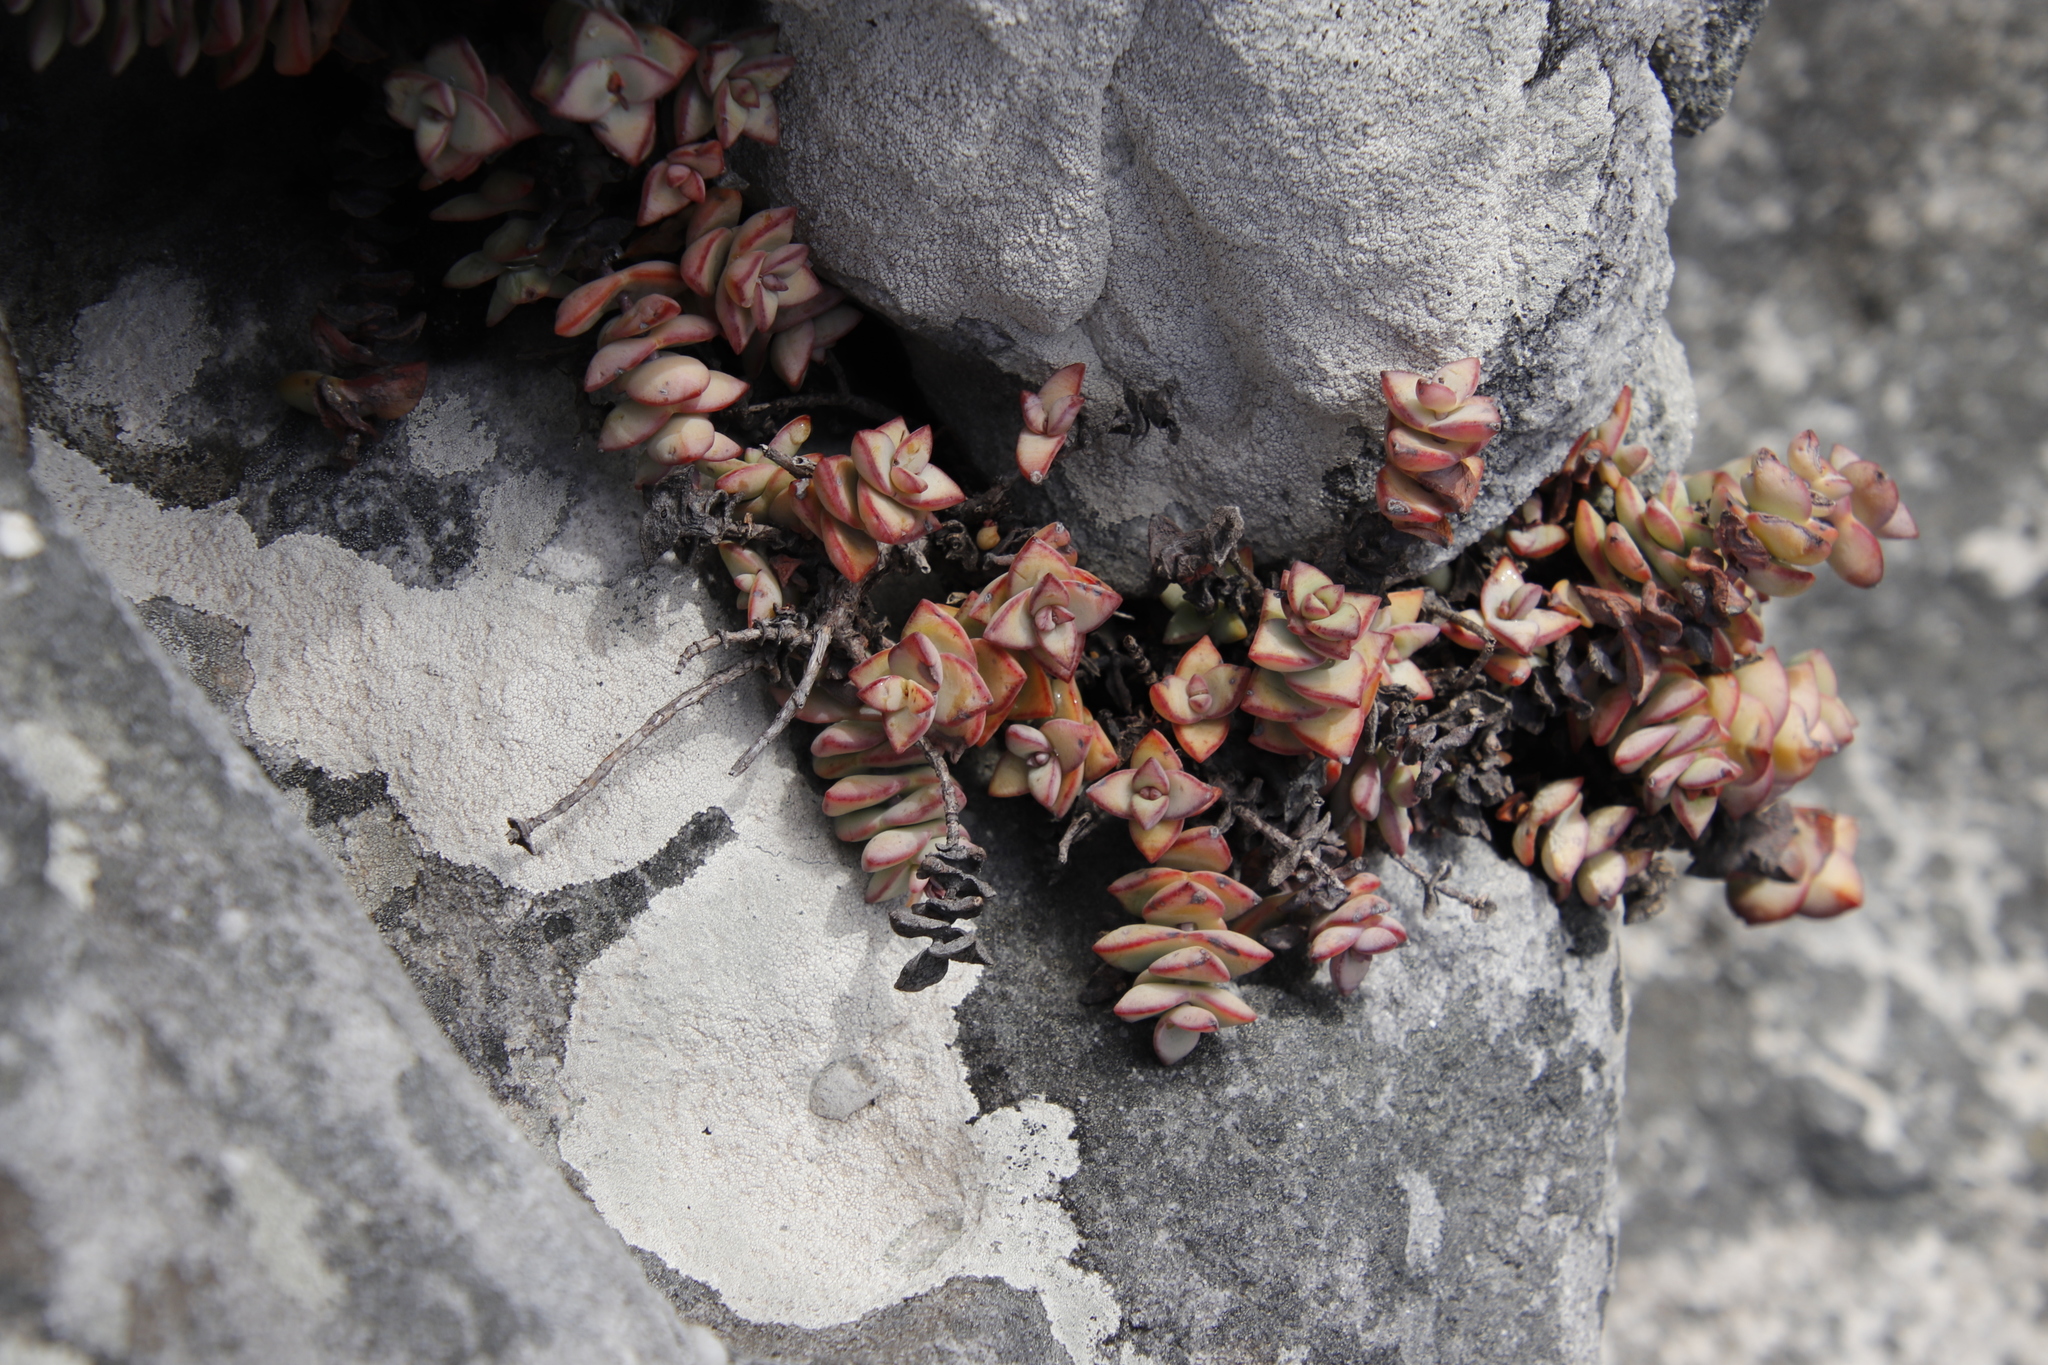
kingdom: Plantae
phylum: Tracheophyta
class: Magnoliopsida
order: Saxifragales
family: Crassulaceae
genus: Crassula
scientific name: Crassula rupestris
